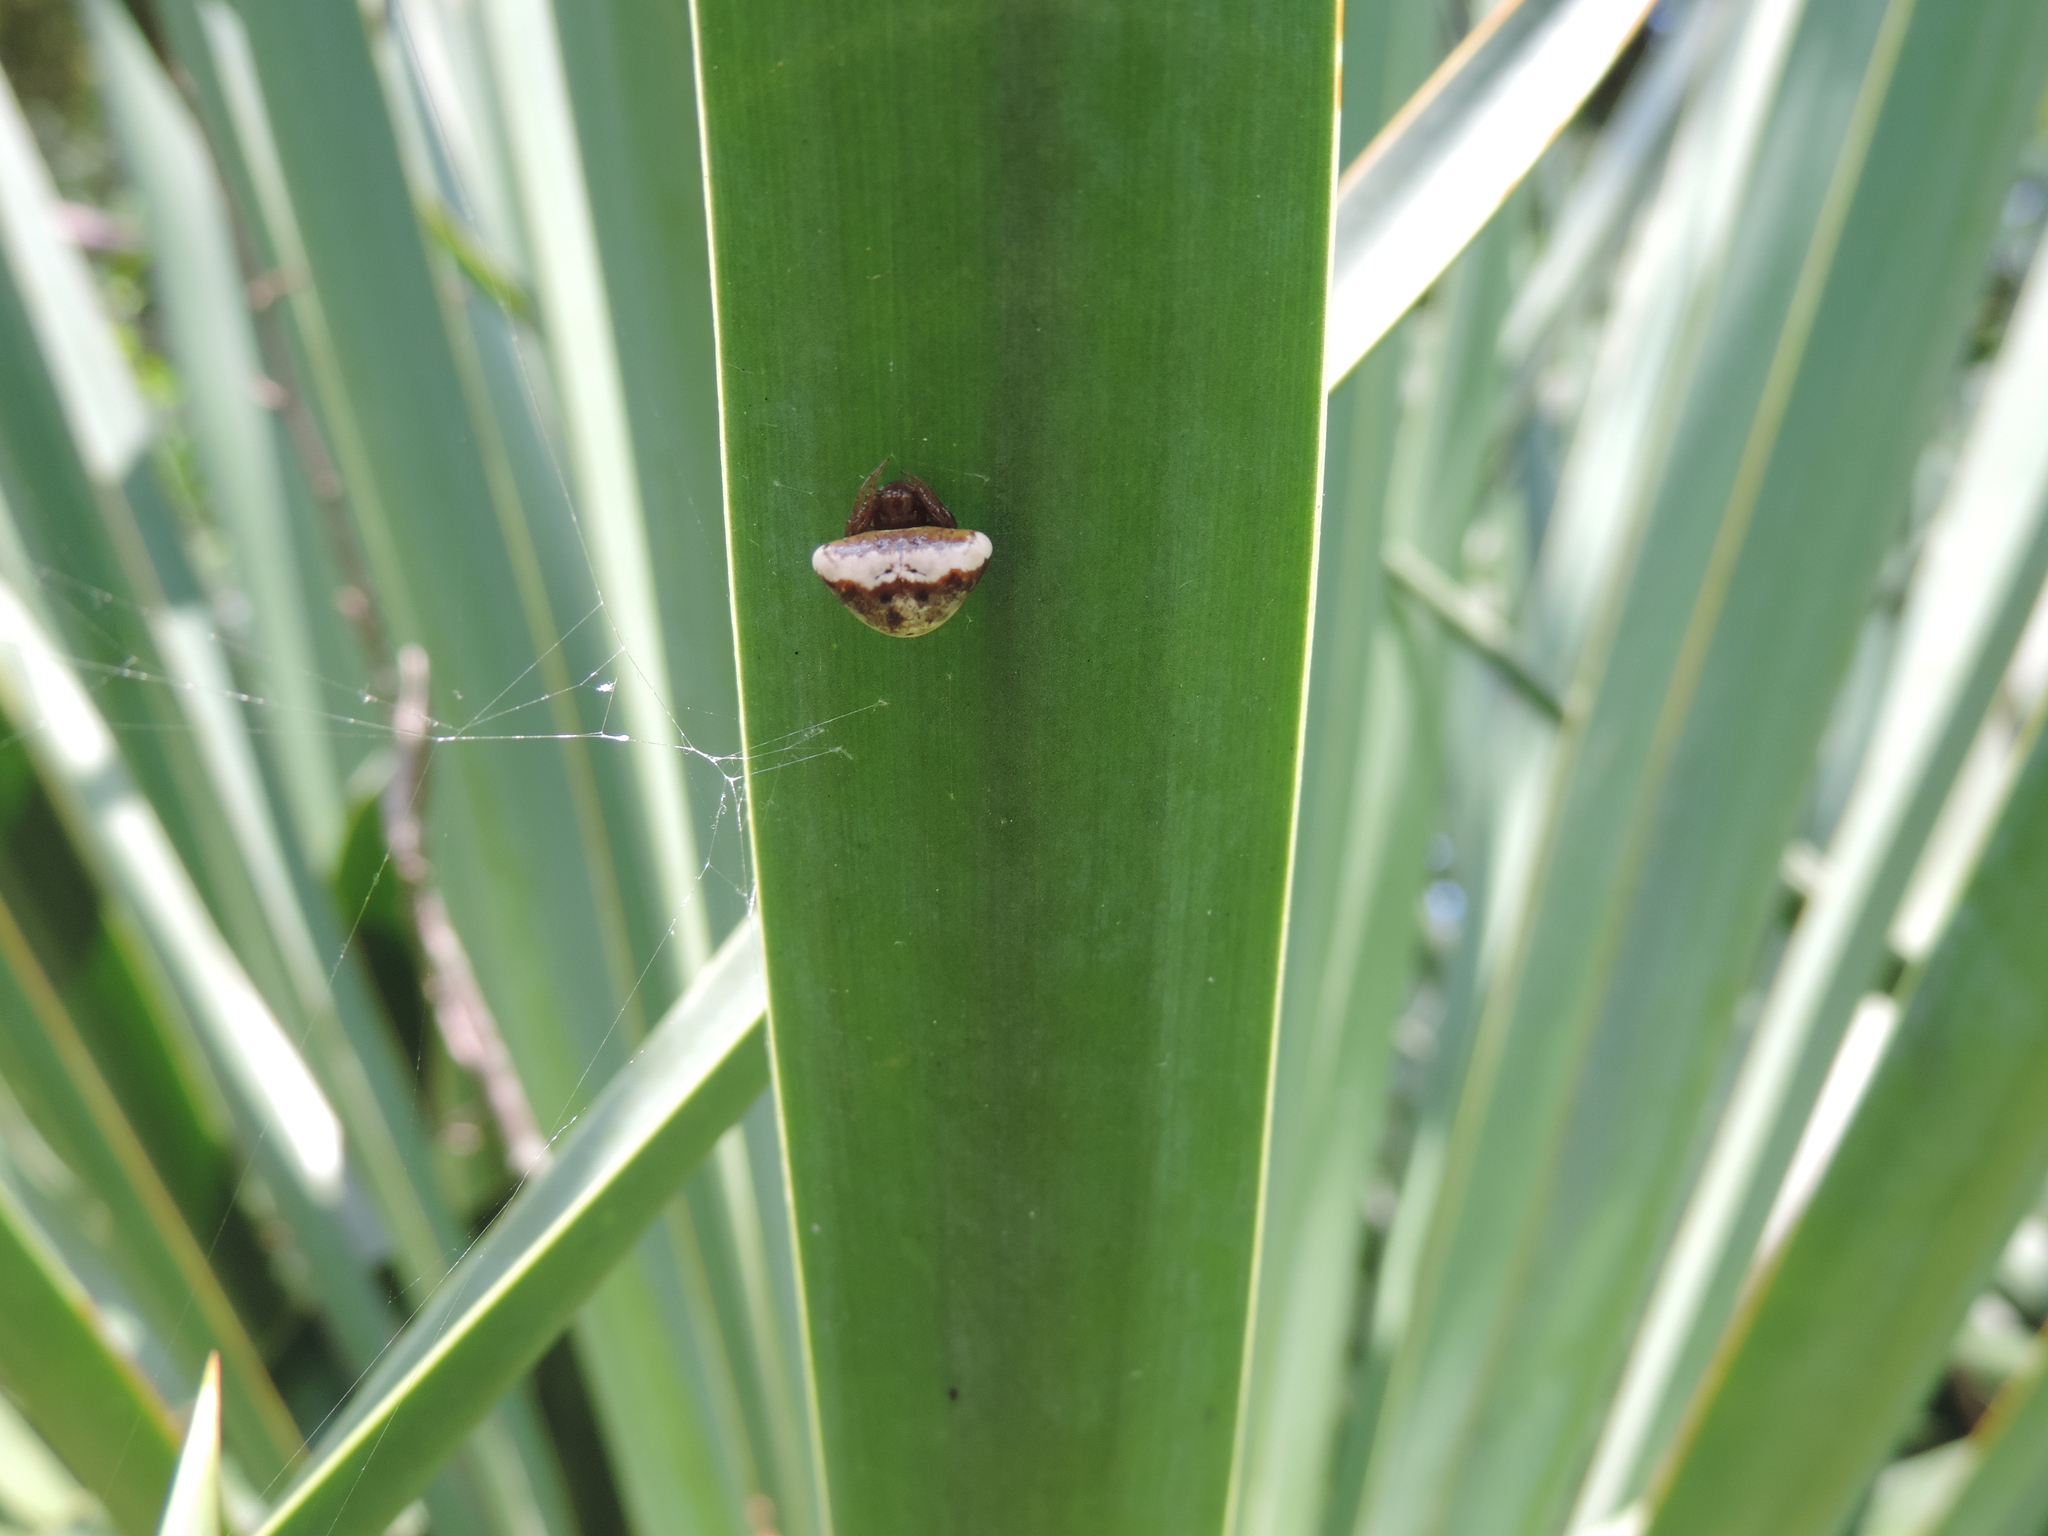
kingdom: Animalia
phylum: Arthropoda
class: Arachnida
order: Araneae
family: Araneidae
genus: Cyrtarachne
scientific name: Cyrtarachne ixoides
